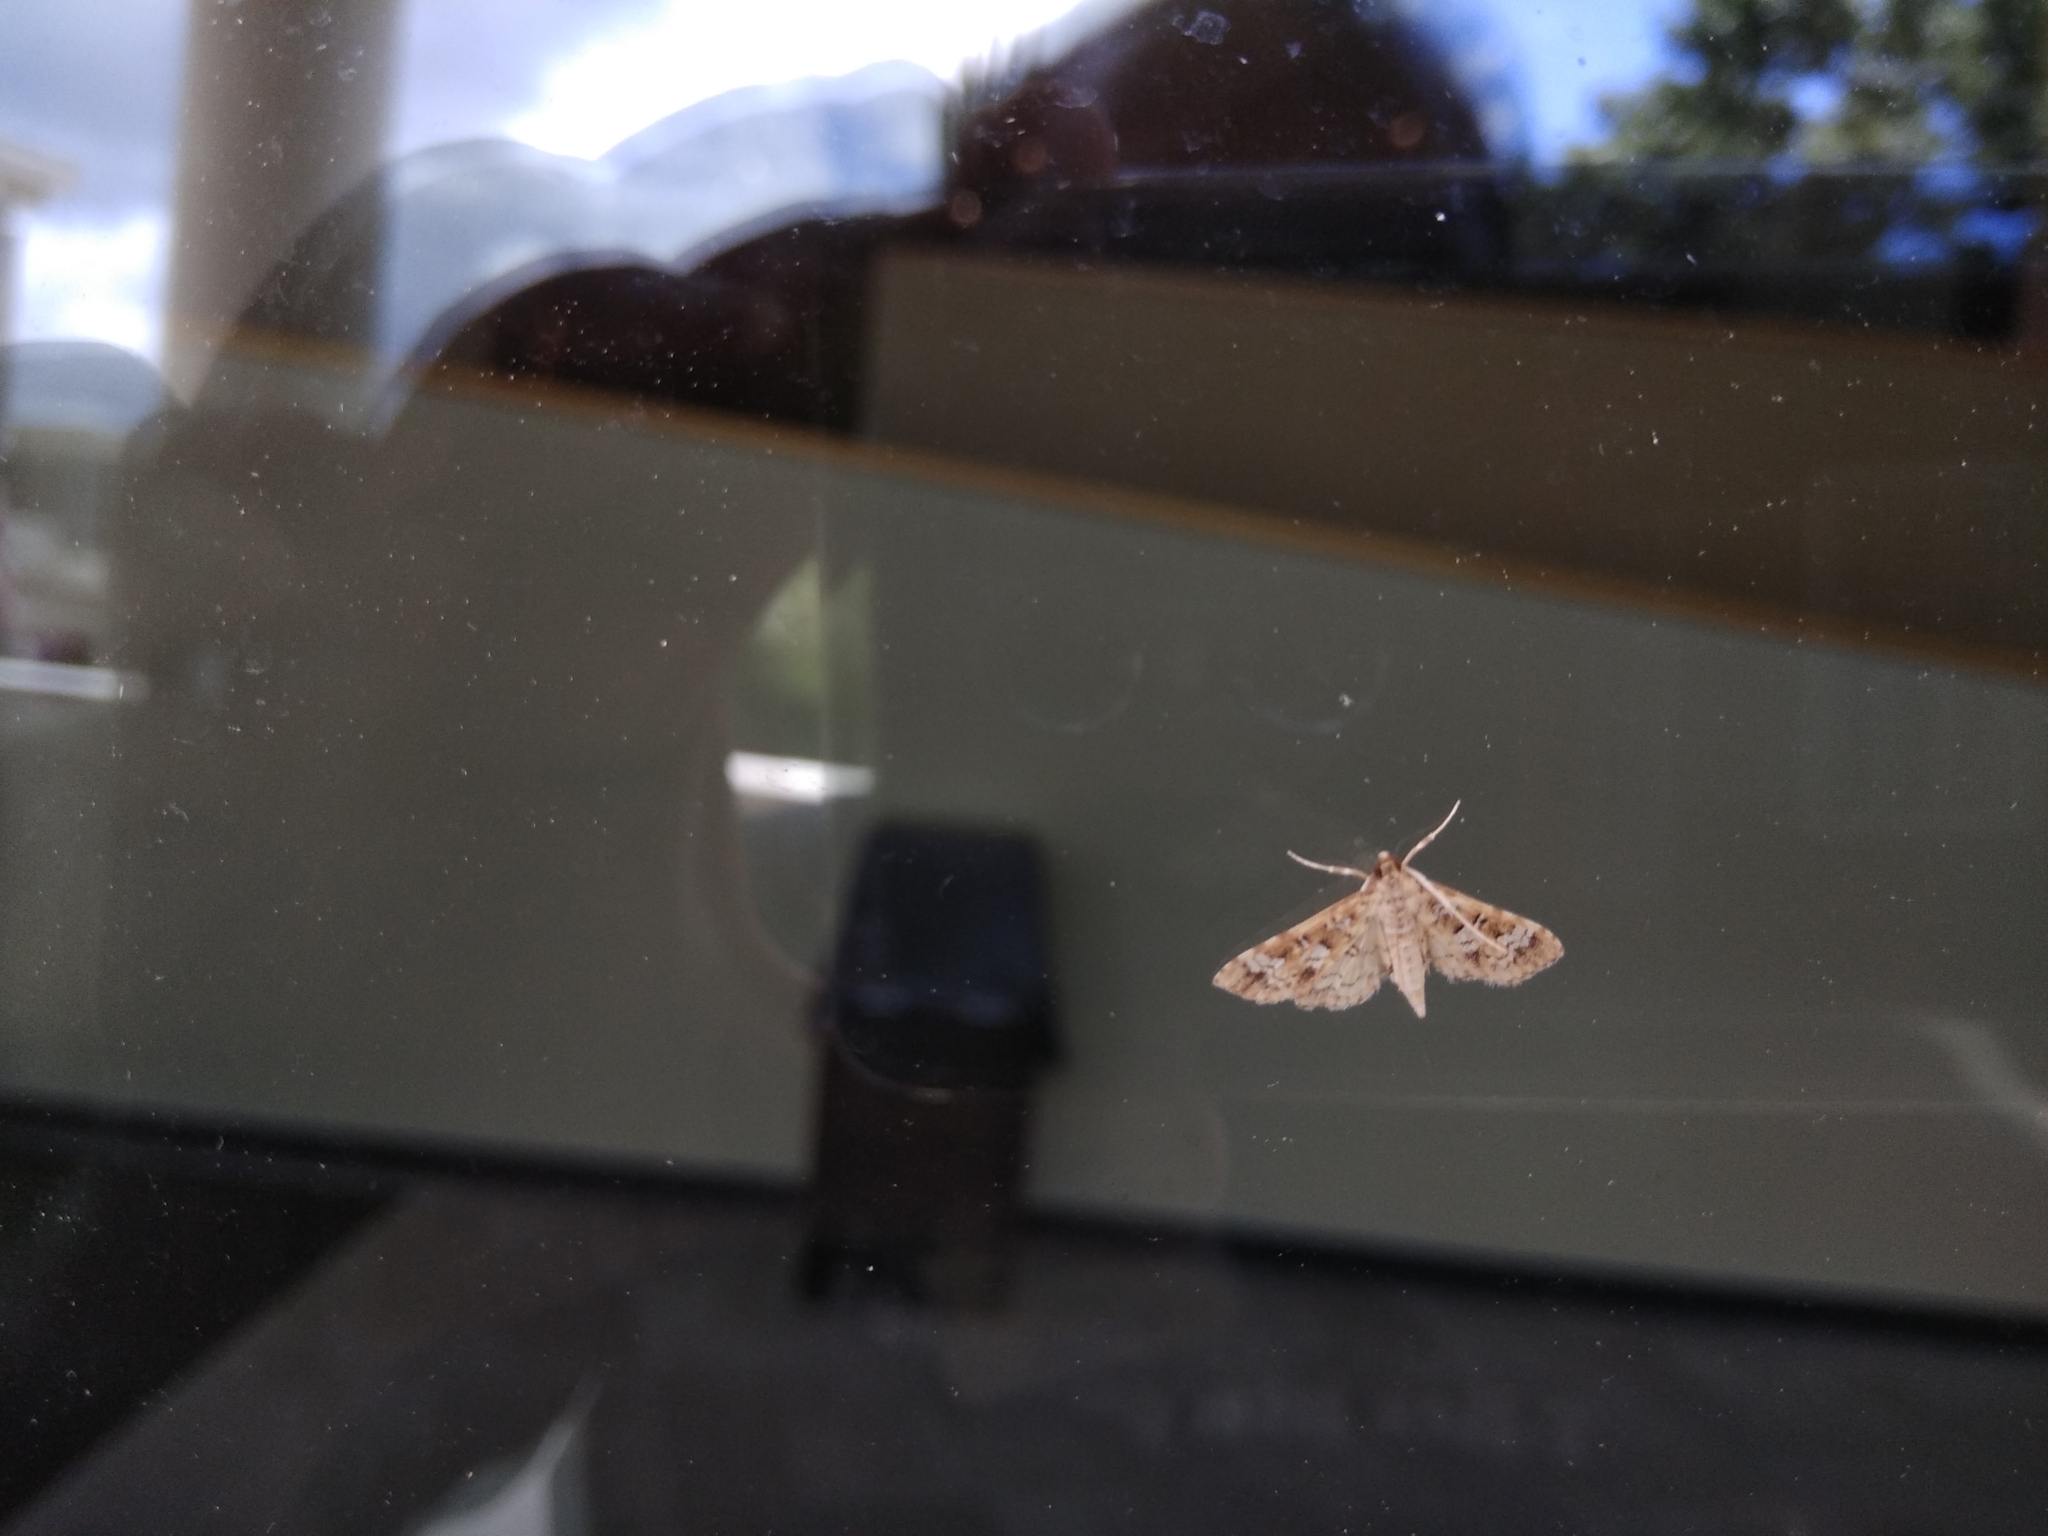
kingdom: Animalia
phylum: Arthropoda
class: Insecta
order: Lepidoptera
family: Crambidae
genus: Samea
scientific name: Samea multiplicalis
